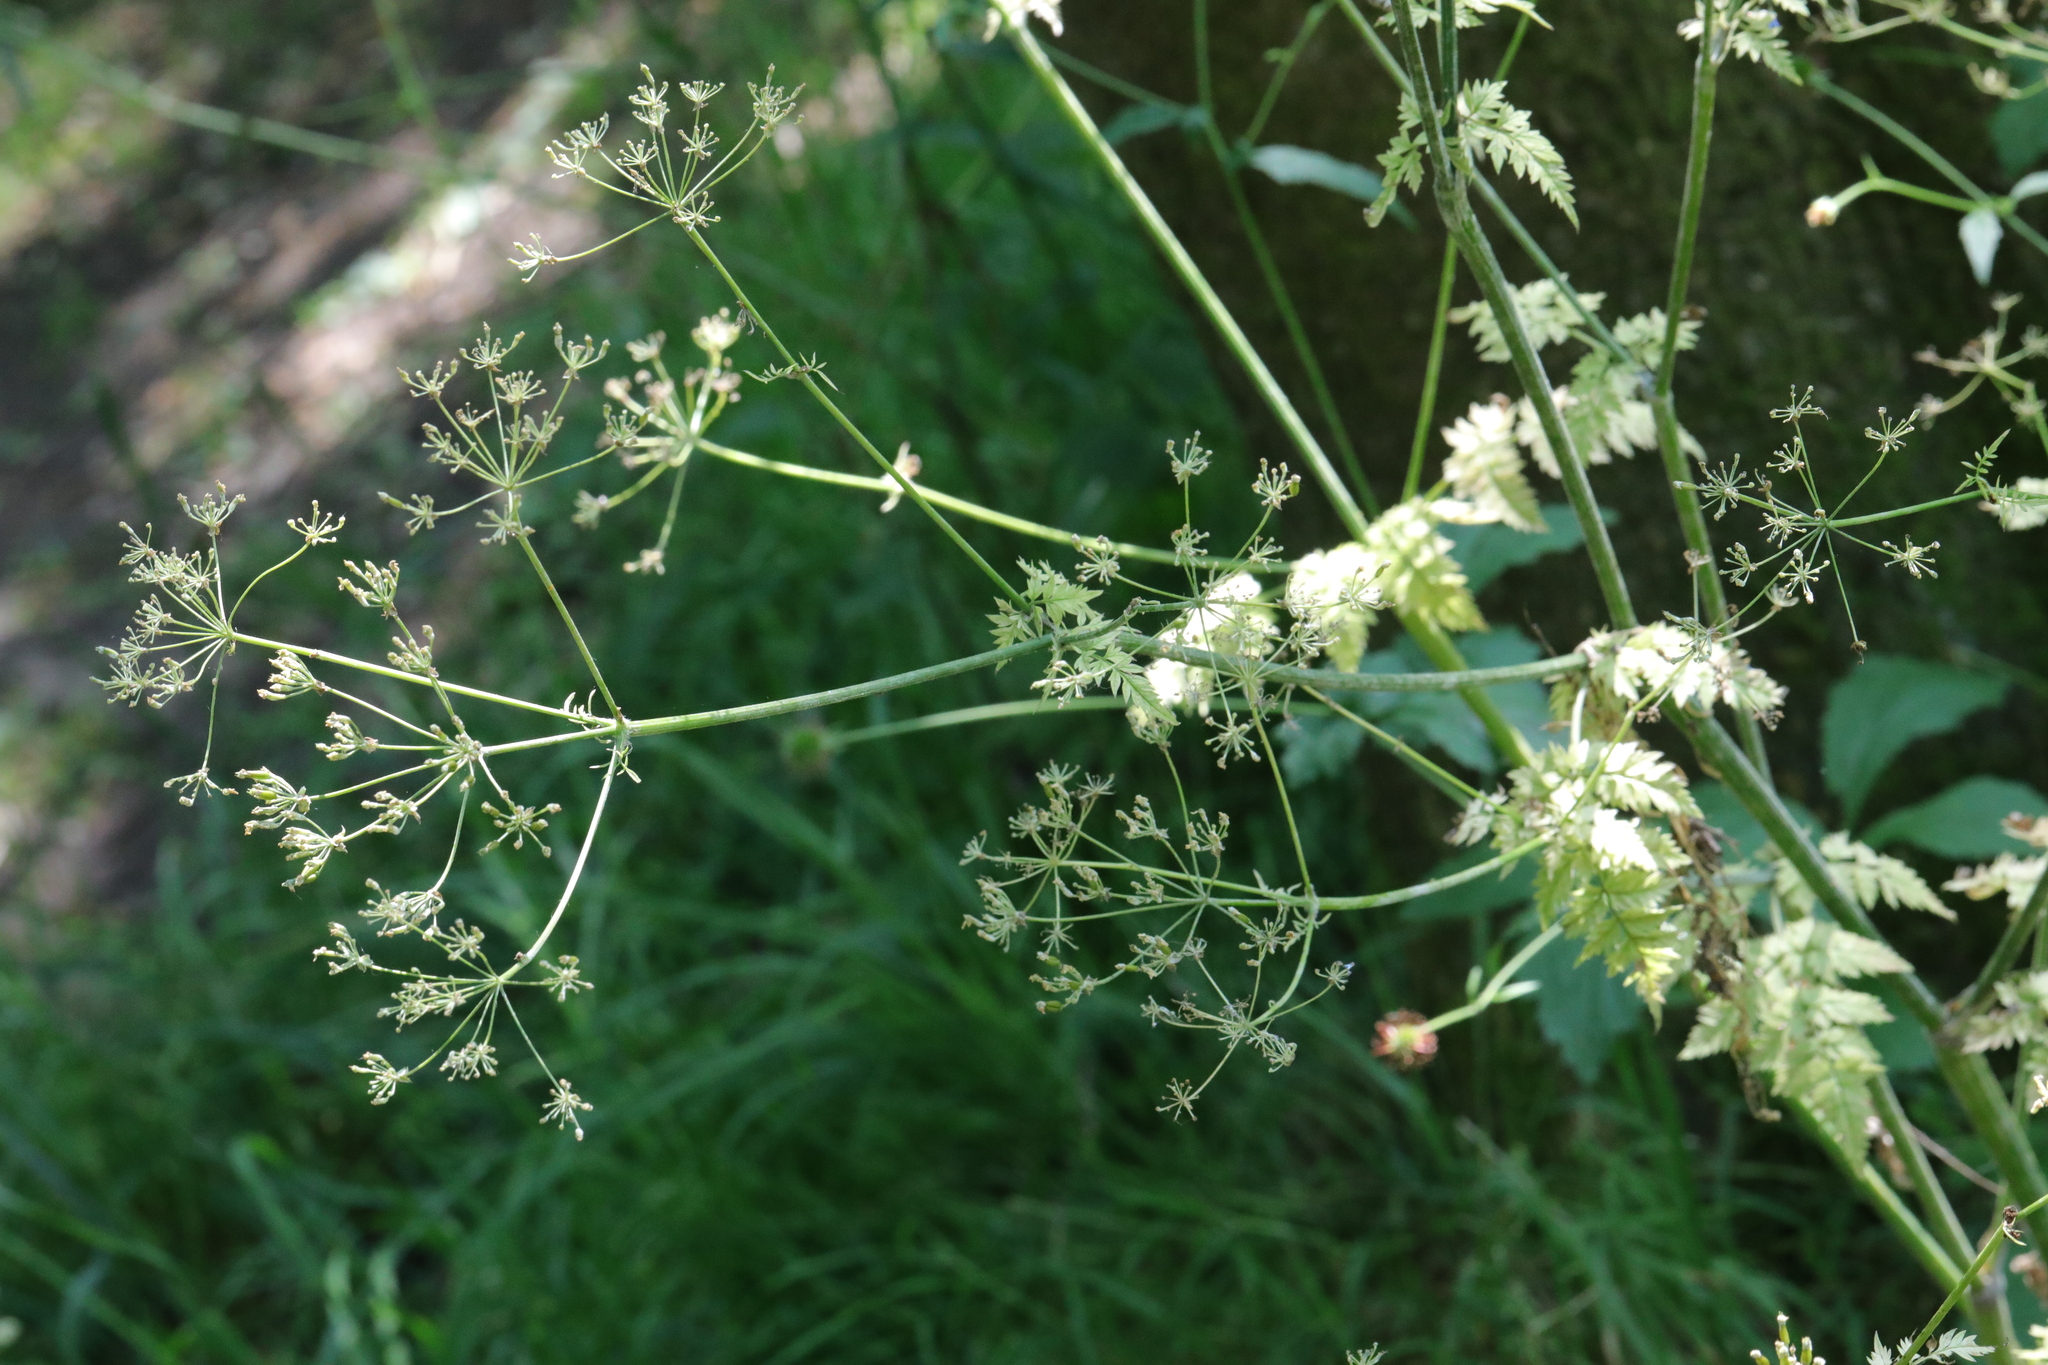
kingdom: Plantae
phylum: Tracheophyta
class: Magnoliopsida
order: Apiales
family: Apiaceae
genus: Anthriscus
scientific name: Anthriscus sylvestris
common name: Cow parsley
